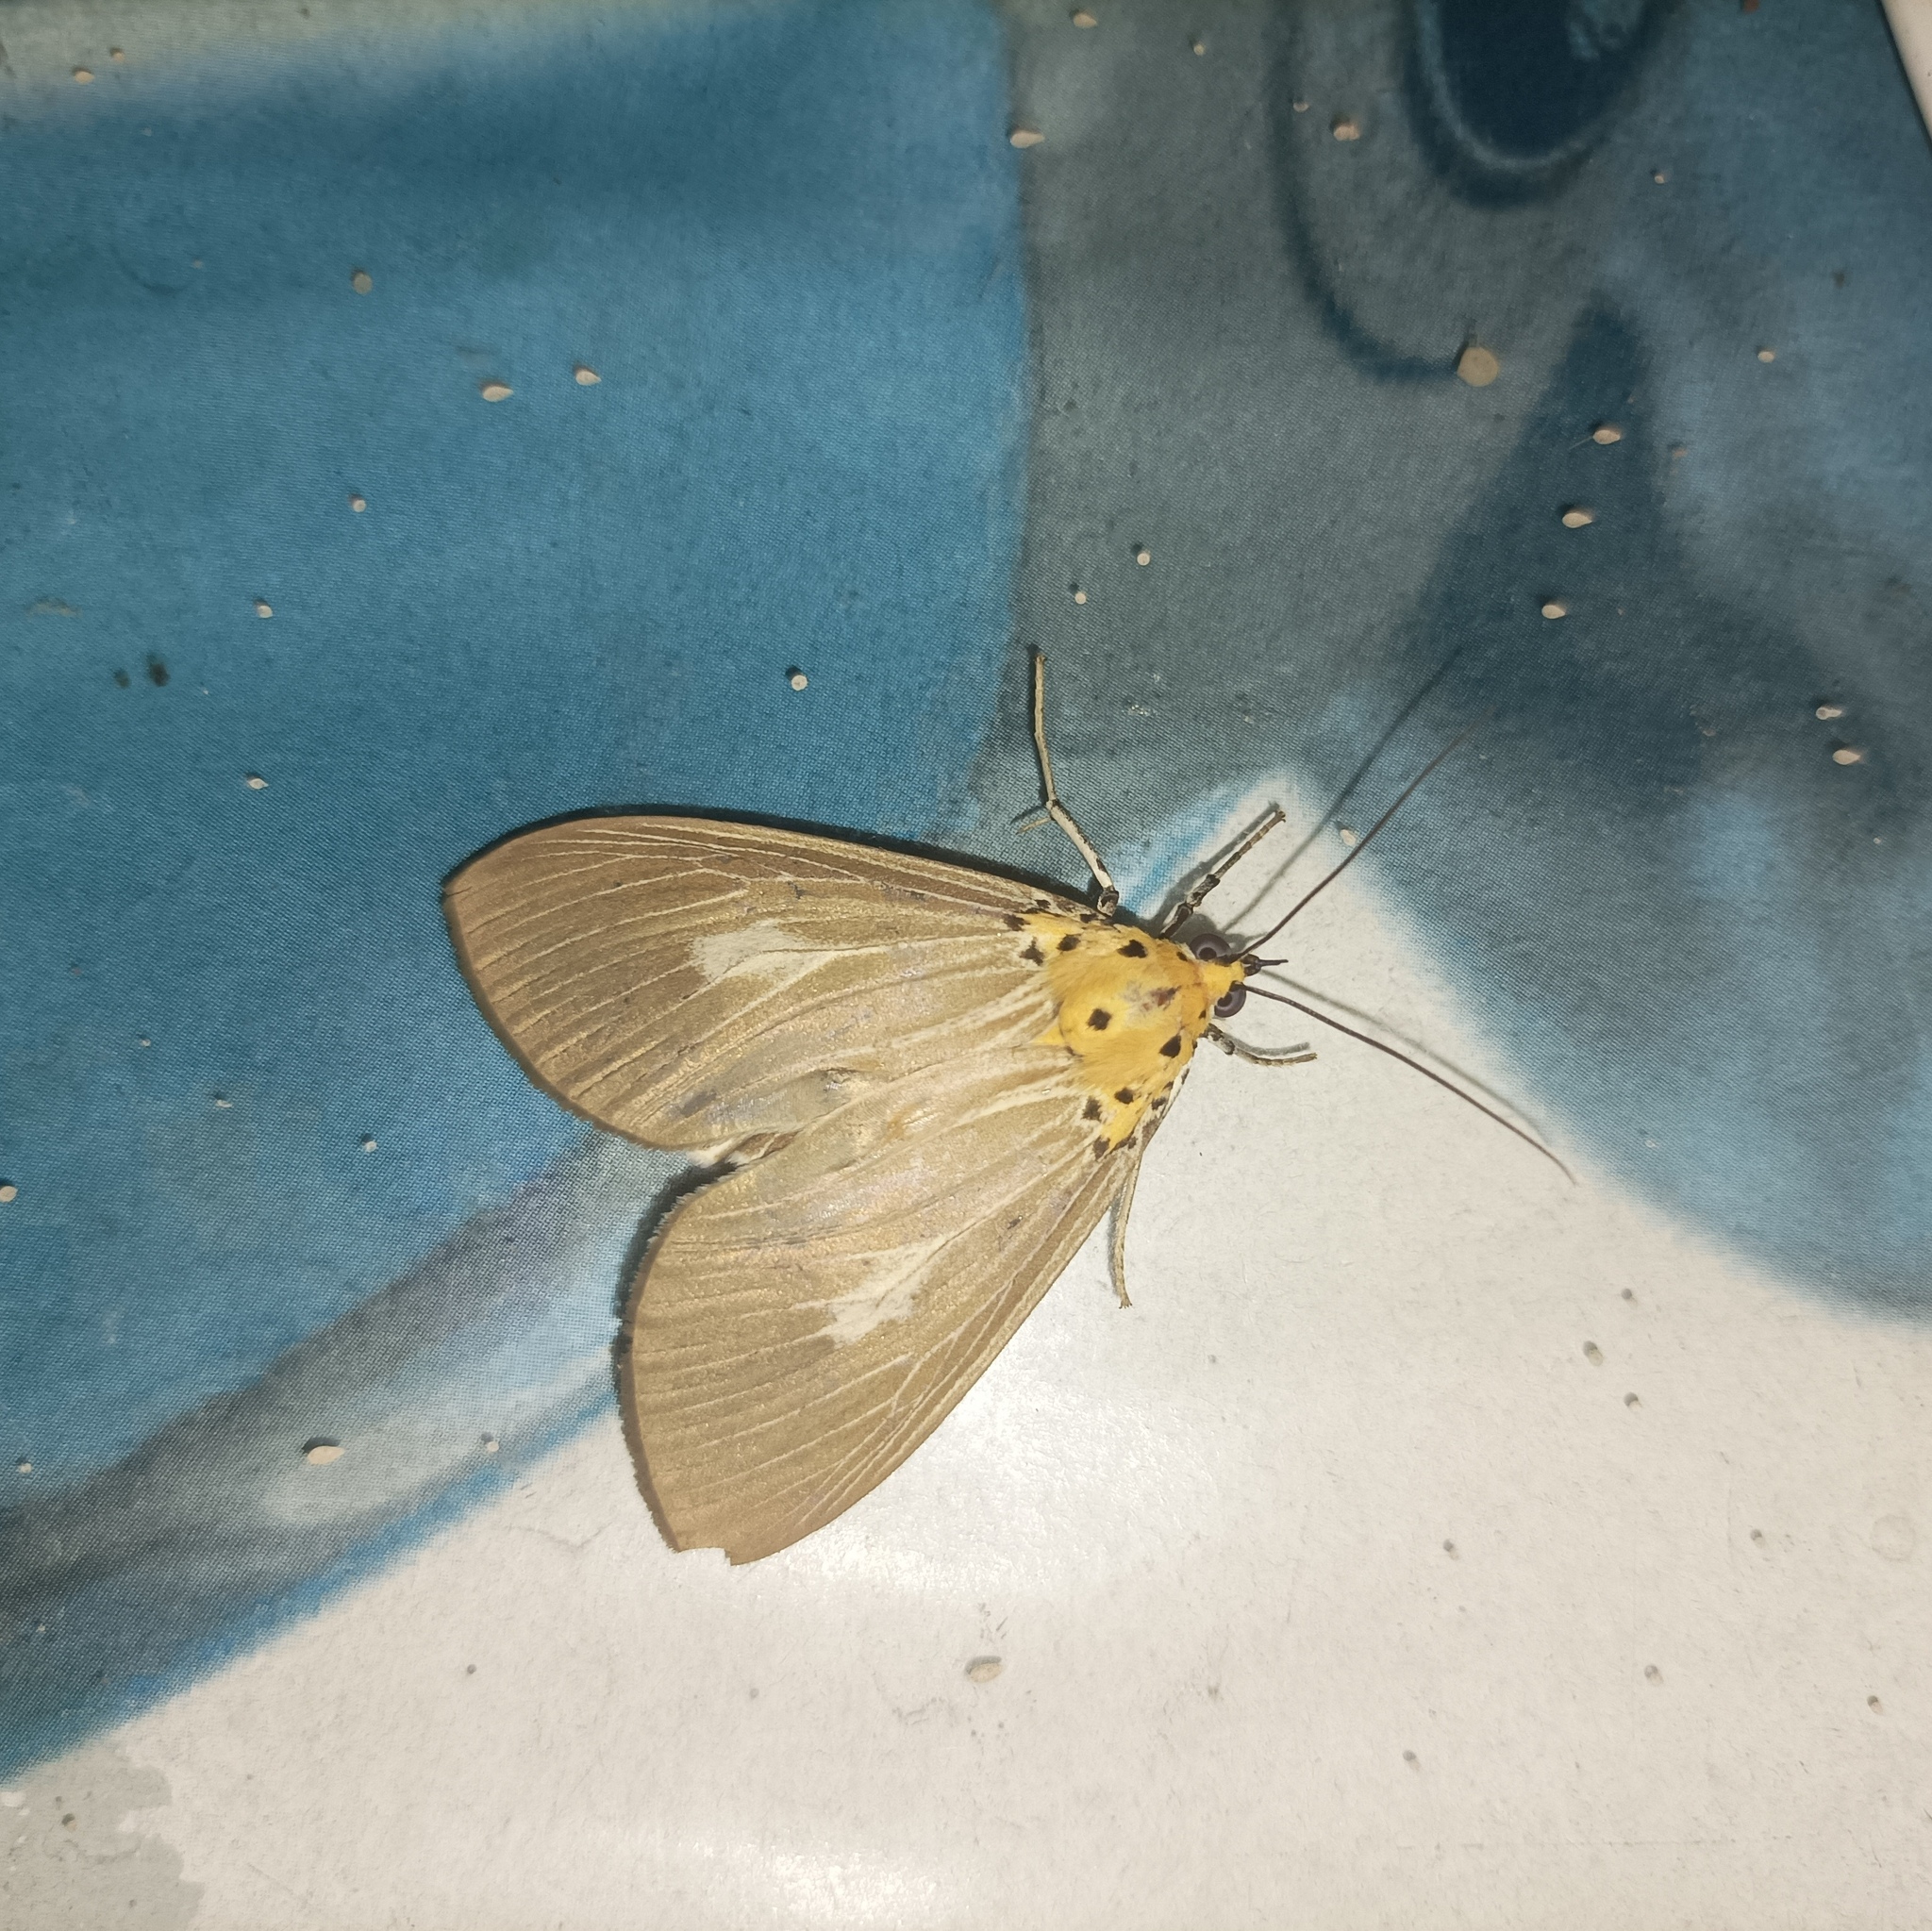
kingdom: Animalia
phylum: Arthropoda
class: Insecta
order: Lepidoptera
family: Erebidae
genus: Asota
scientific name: Asota canaraica
